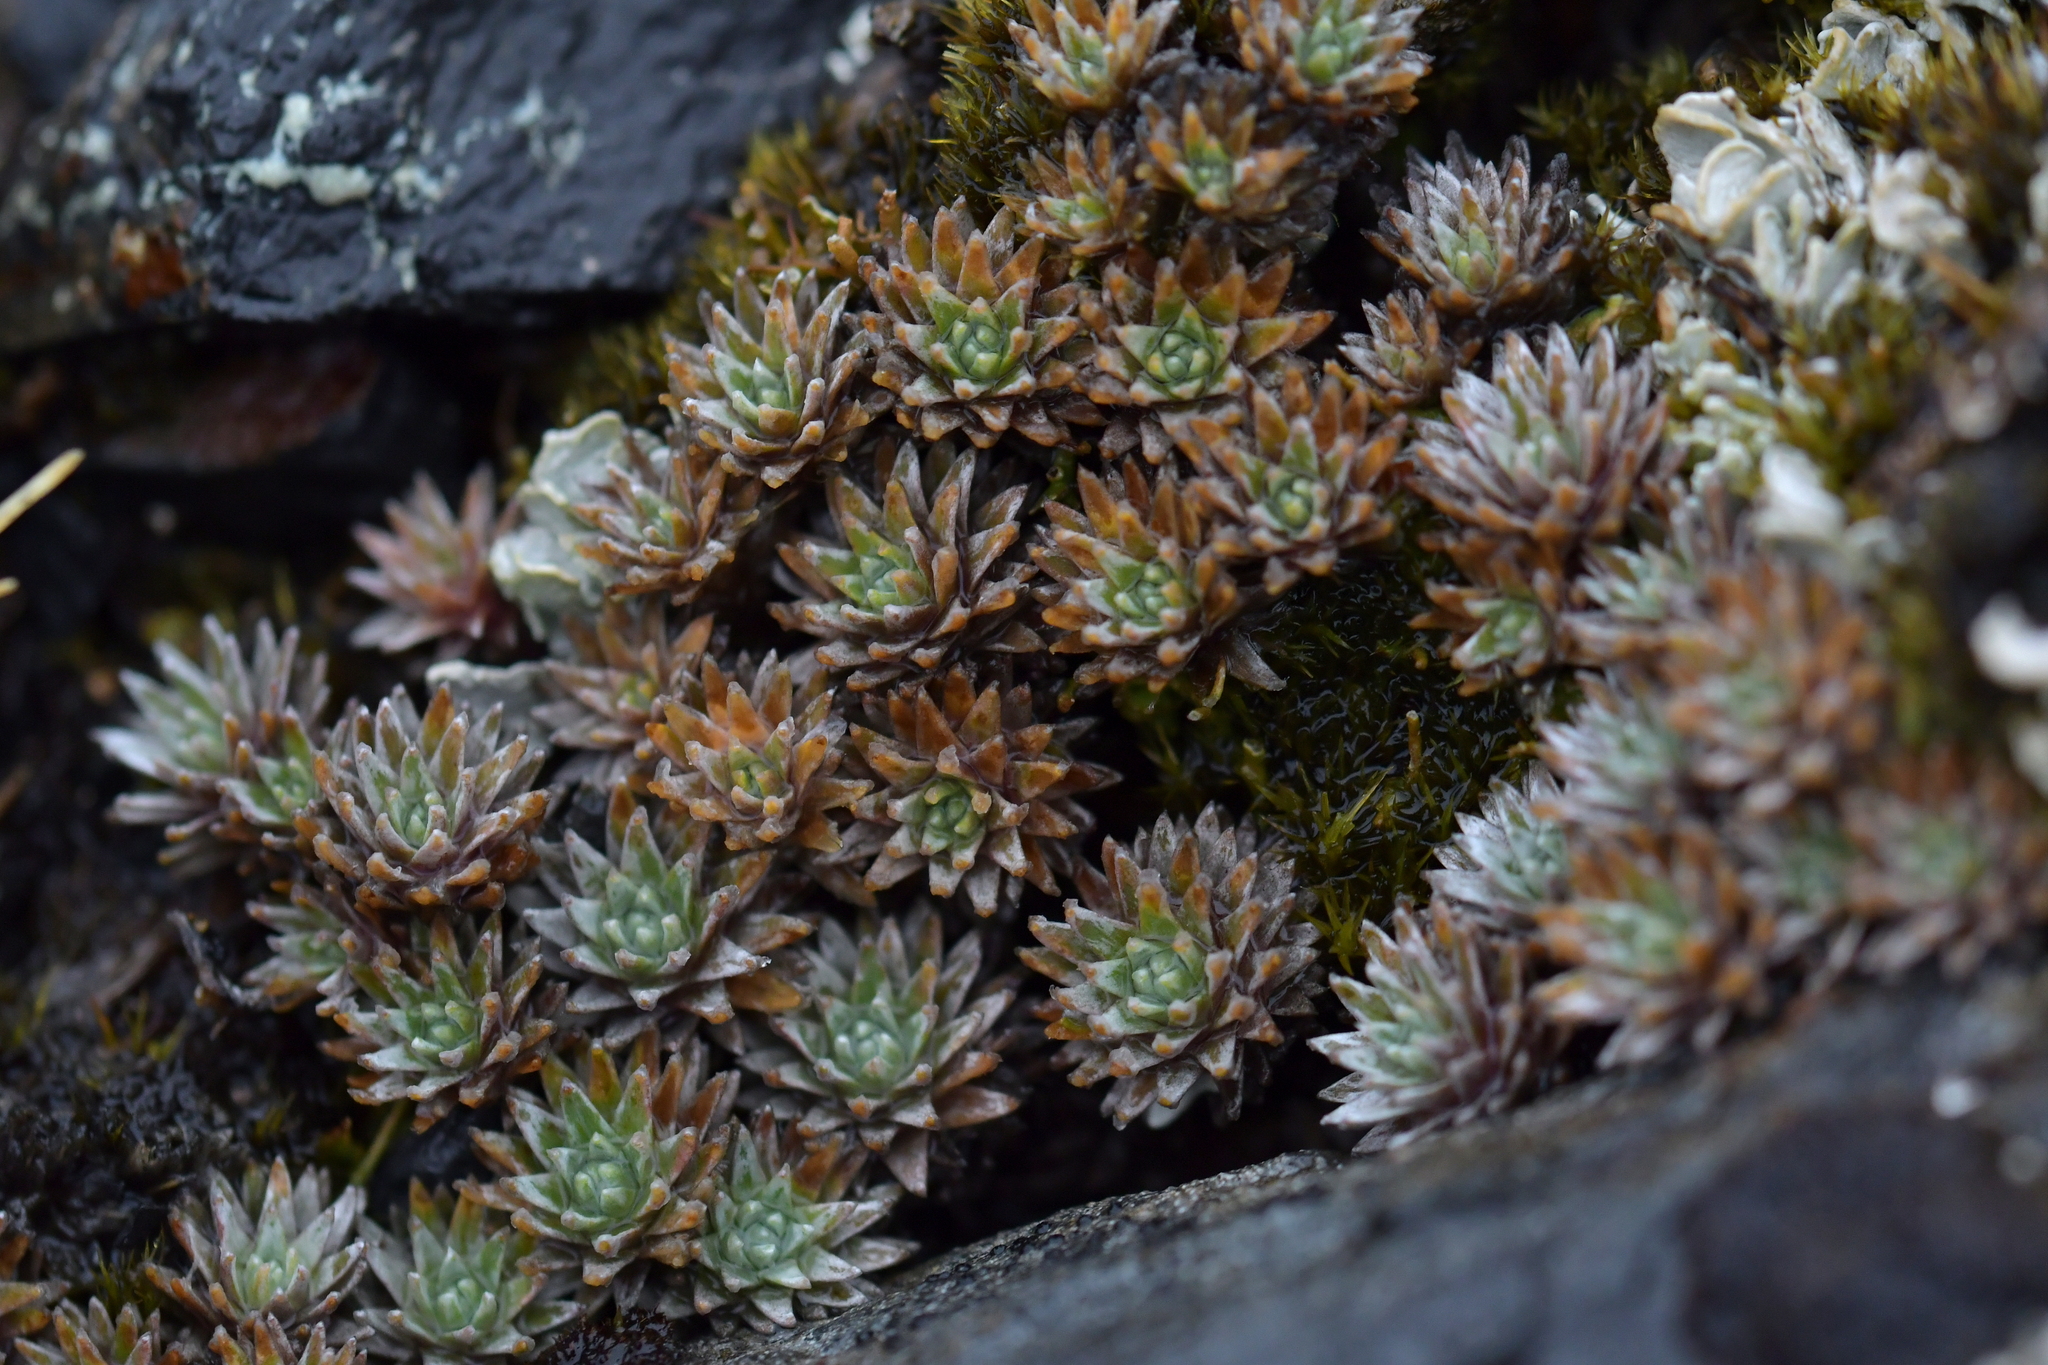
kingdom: Plantae
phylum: Tracheophyta
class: Magnoliopsida
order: Asterales
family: Asteraceae
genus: Raoulia
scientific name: Raoulia grandiflora
